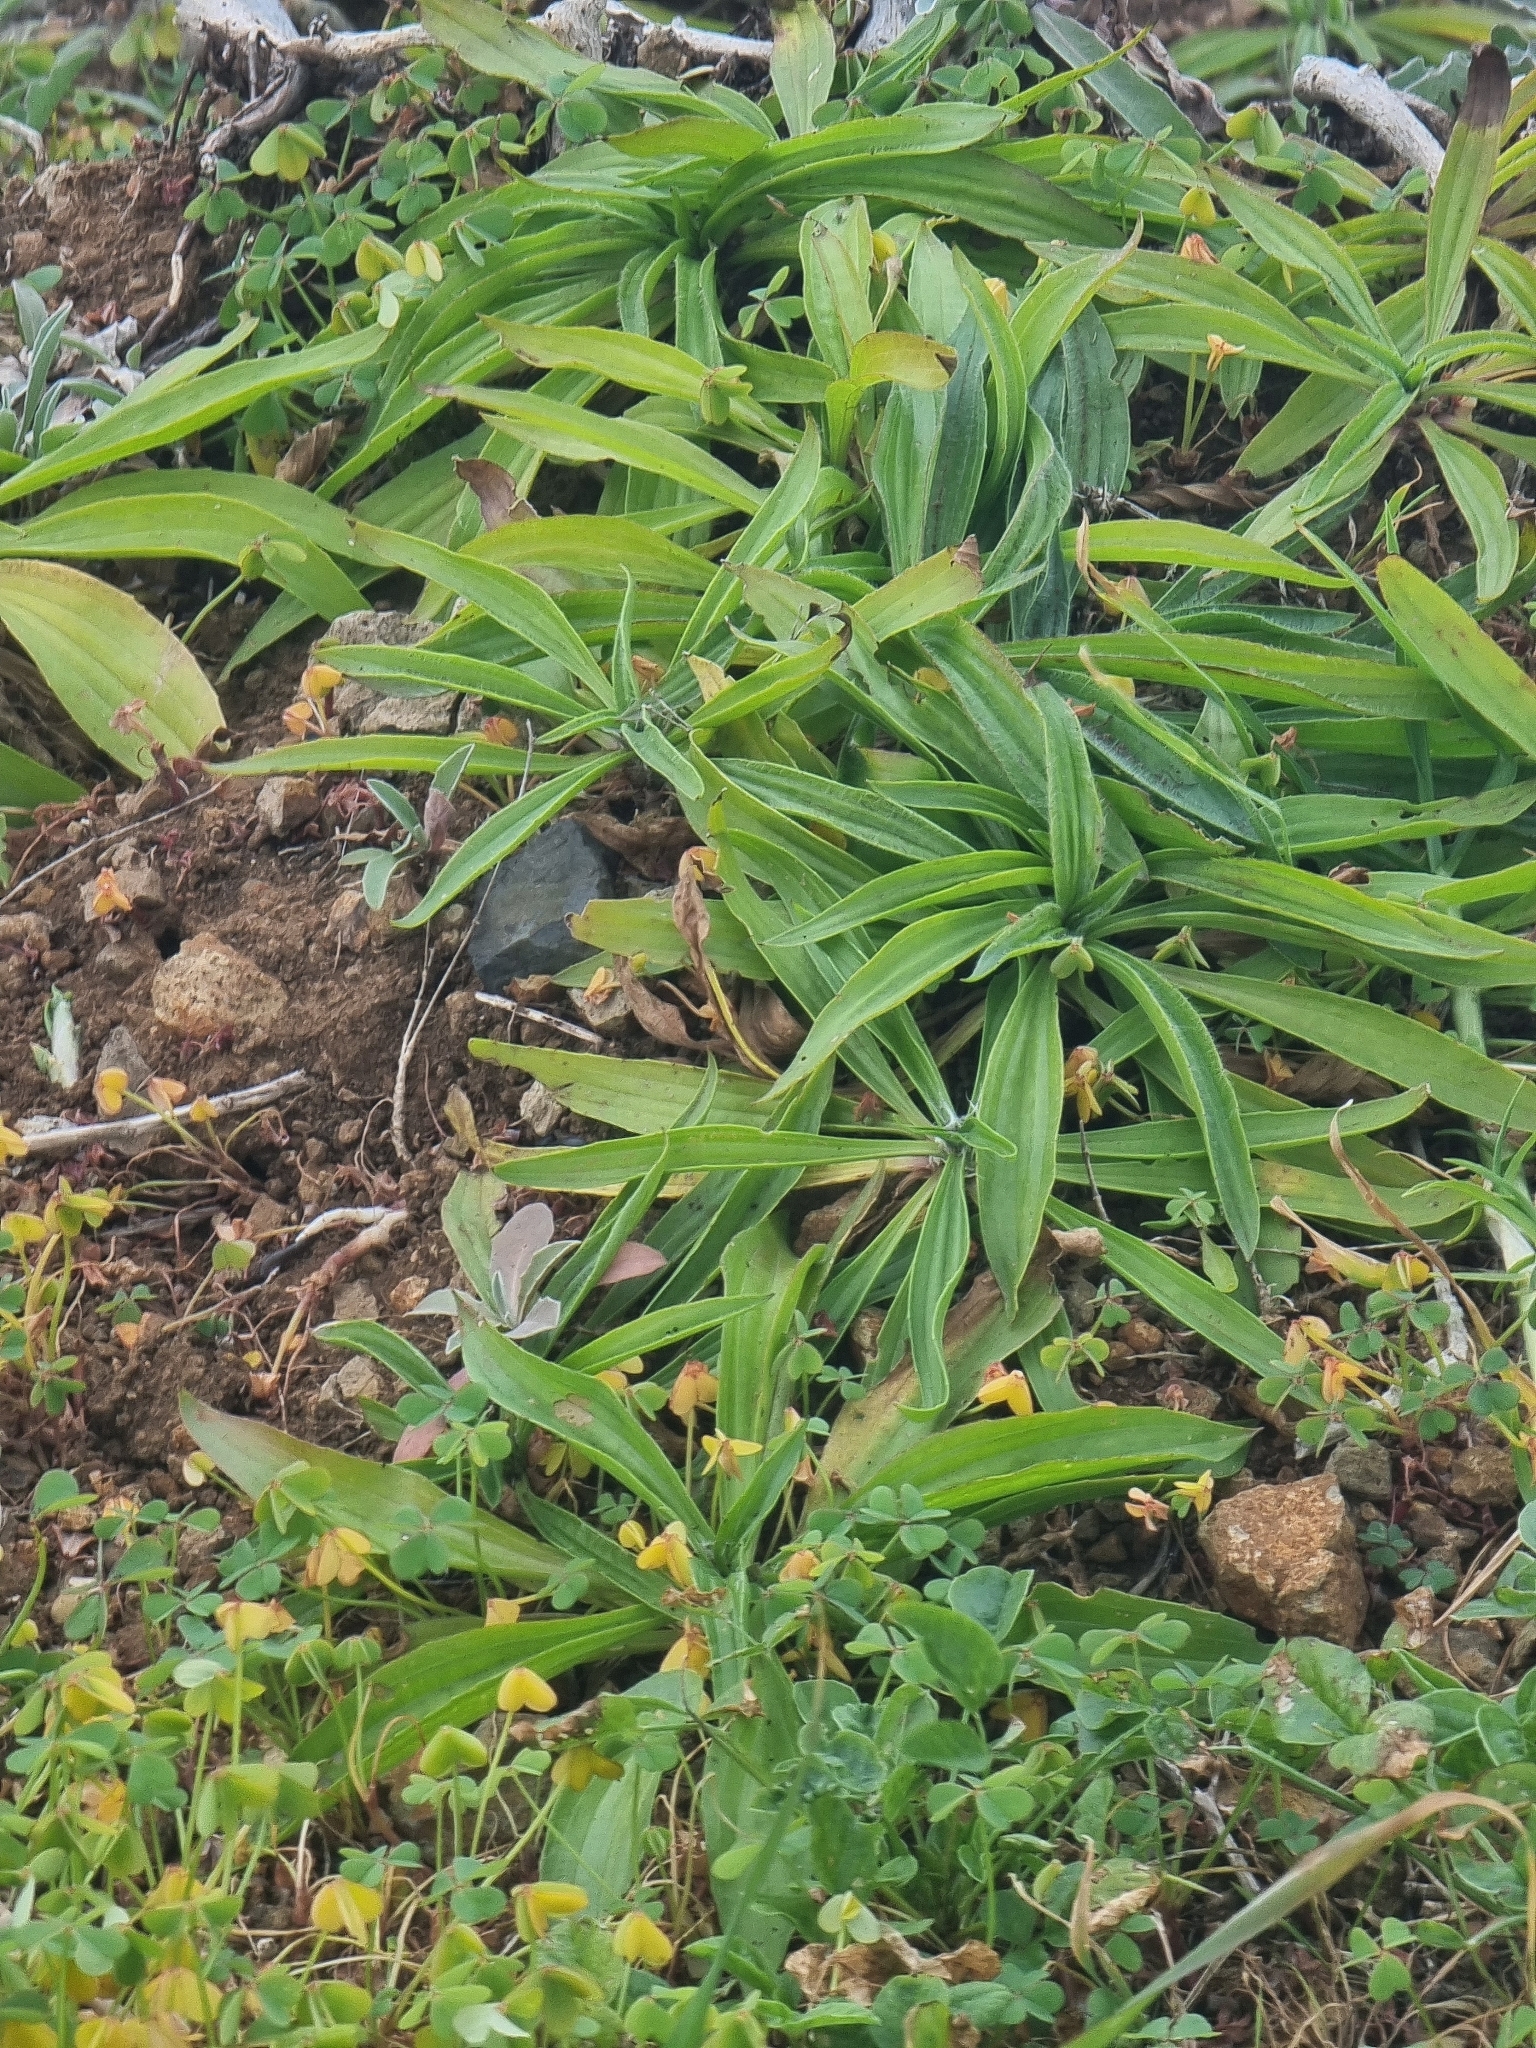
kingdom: Plantae
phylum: Tracheophyta
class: Magnoliopsida
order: Lamiales
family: Plantaginaceae
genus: Plantago
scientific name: Plantago lanceolata
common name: Ribwort plantain
